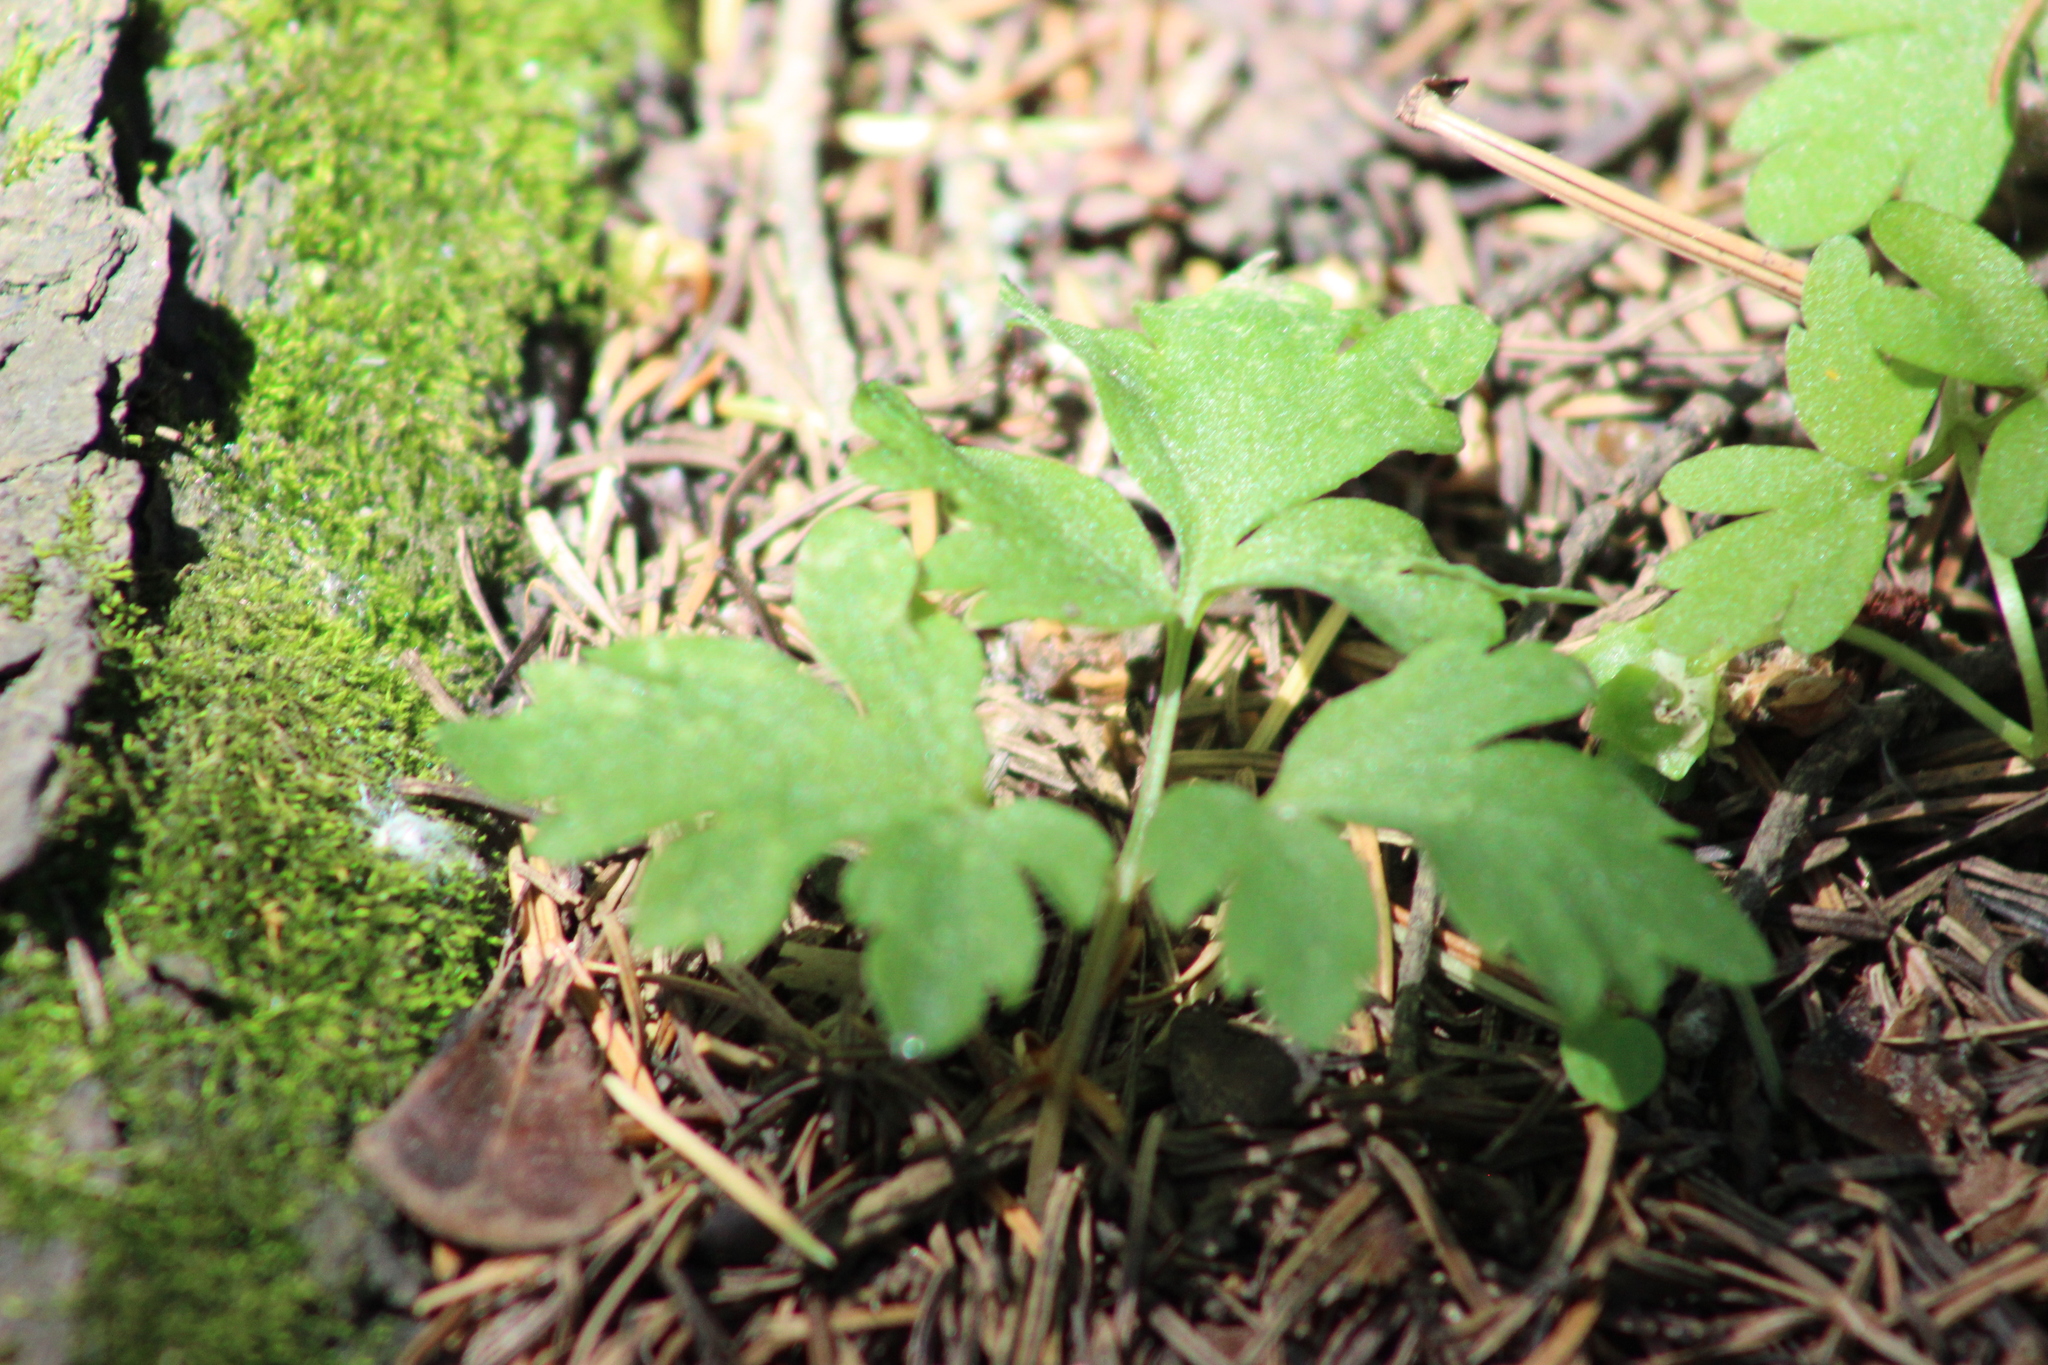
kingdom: Plantae
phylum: Tracheophyta
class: Magnoliopsida
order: Dipsacales
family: Viburnaceae
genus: Adoxa
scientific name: Adoxa moschatellina
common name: Moschatel
